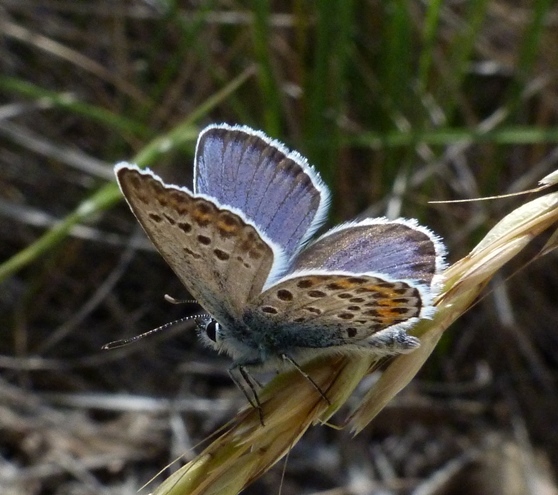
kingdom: Animalia
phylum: Arthropoda
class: Insecta
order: Lepidoptera
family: Lycaenidae
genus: Plebejus
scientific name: Plebejus argus
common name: Silver-studded blue
